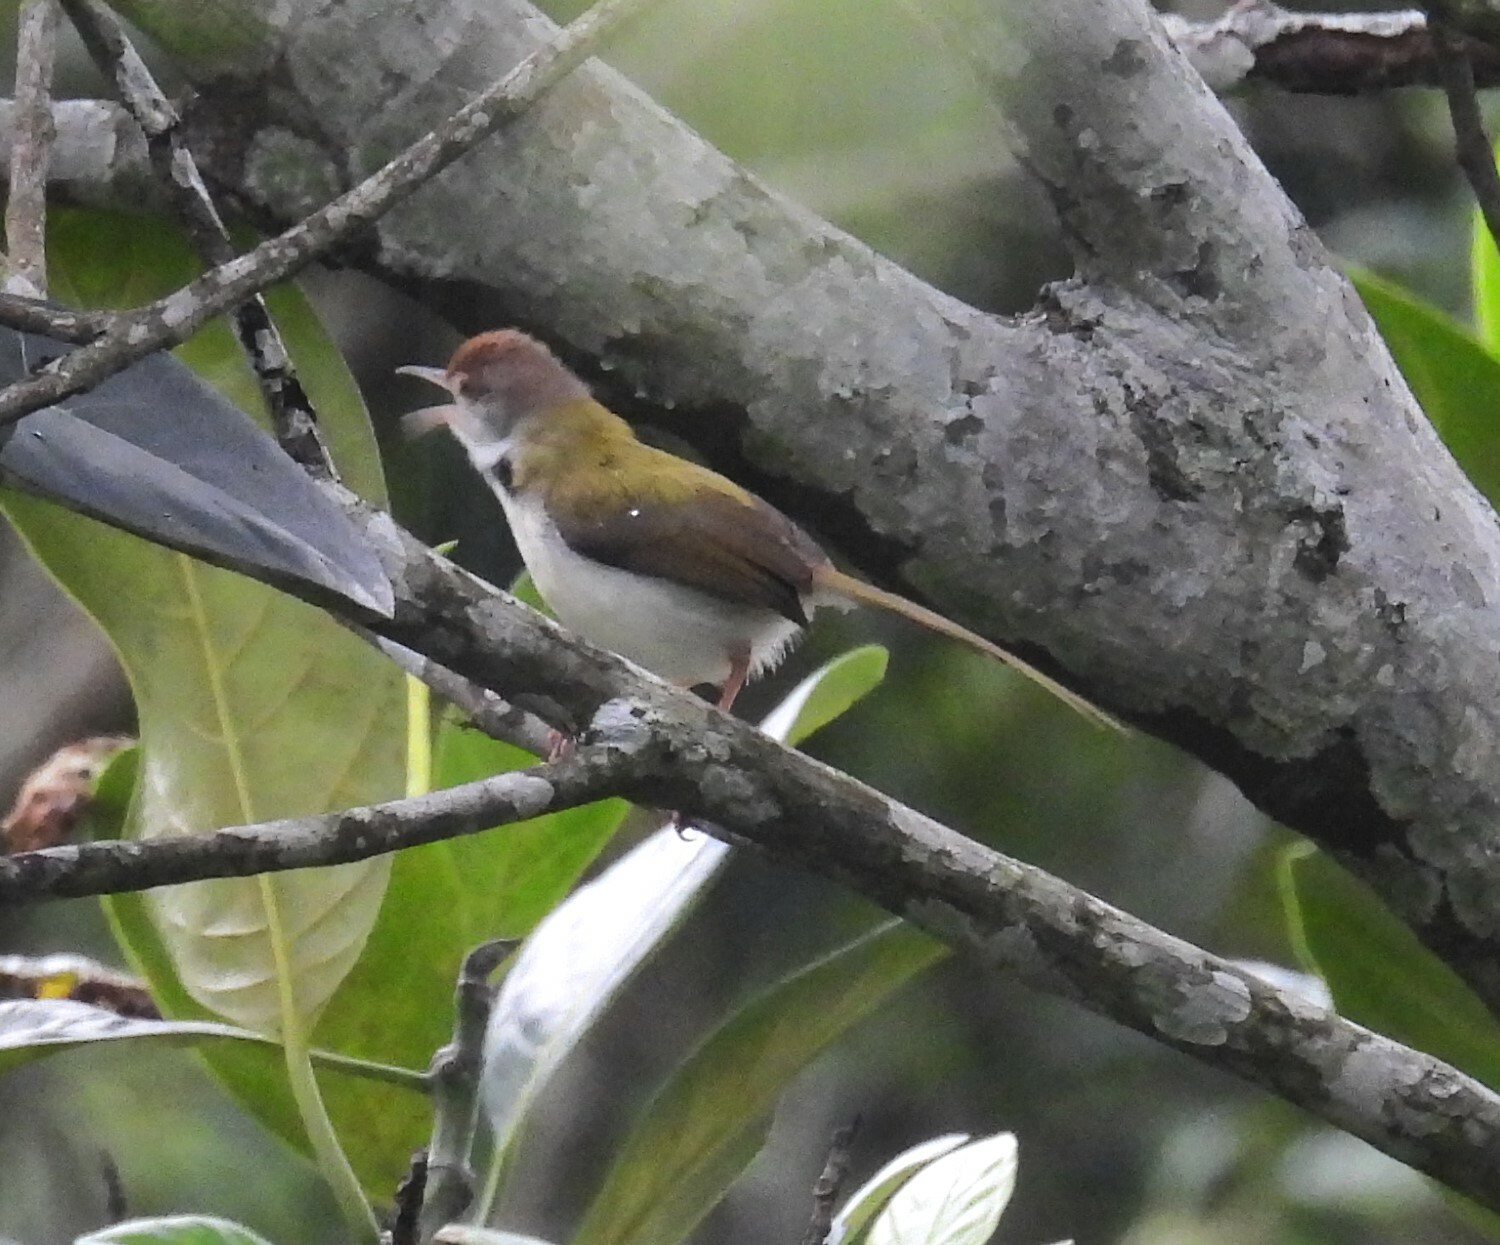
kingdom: Animalia
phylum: Chordata
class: Aves
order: Passeriformes
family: Cisticolidae
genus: Orthotomus
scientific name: Orthotomus sutorius
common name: Common tailorbird
